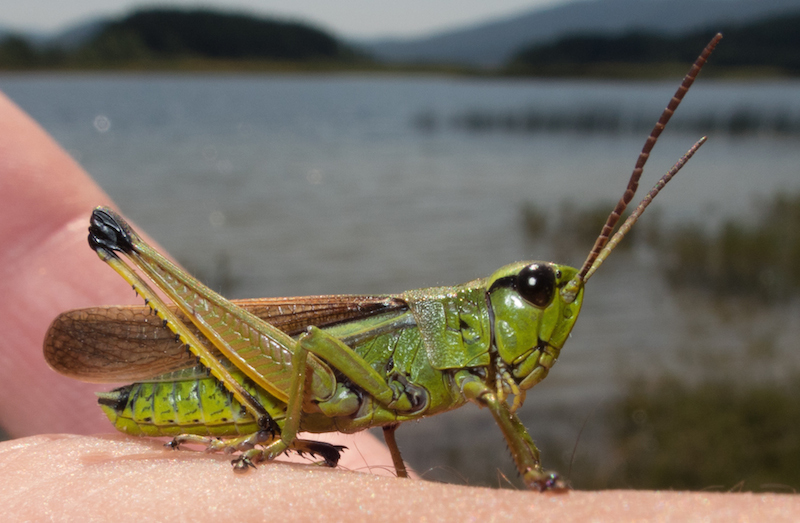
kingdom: Animalia
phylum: Arthropoda
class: Insecta
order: Orthoptera
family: Acrididae
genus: Stethophyma
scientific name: Stethophyma grossum
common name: Large marsh grasshopper
